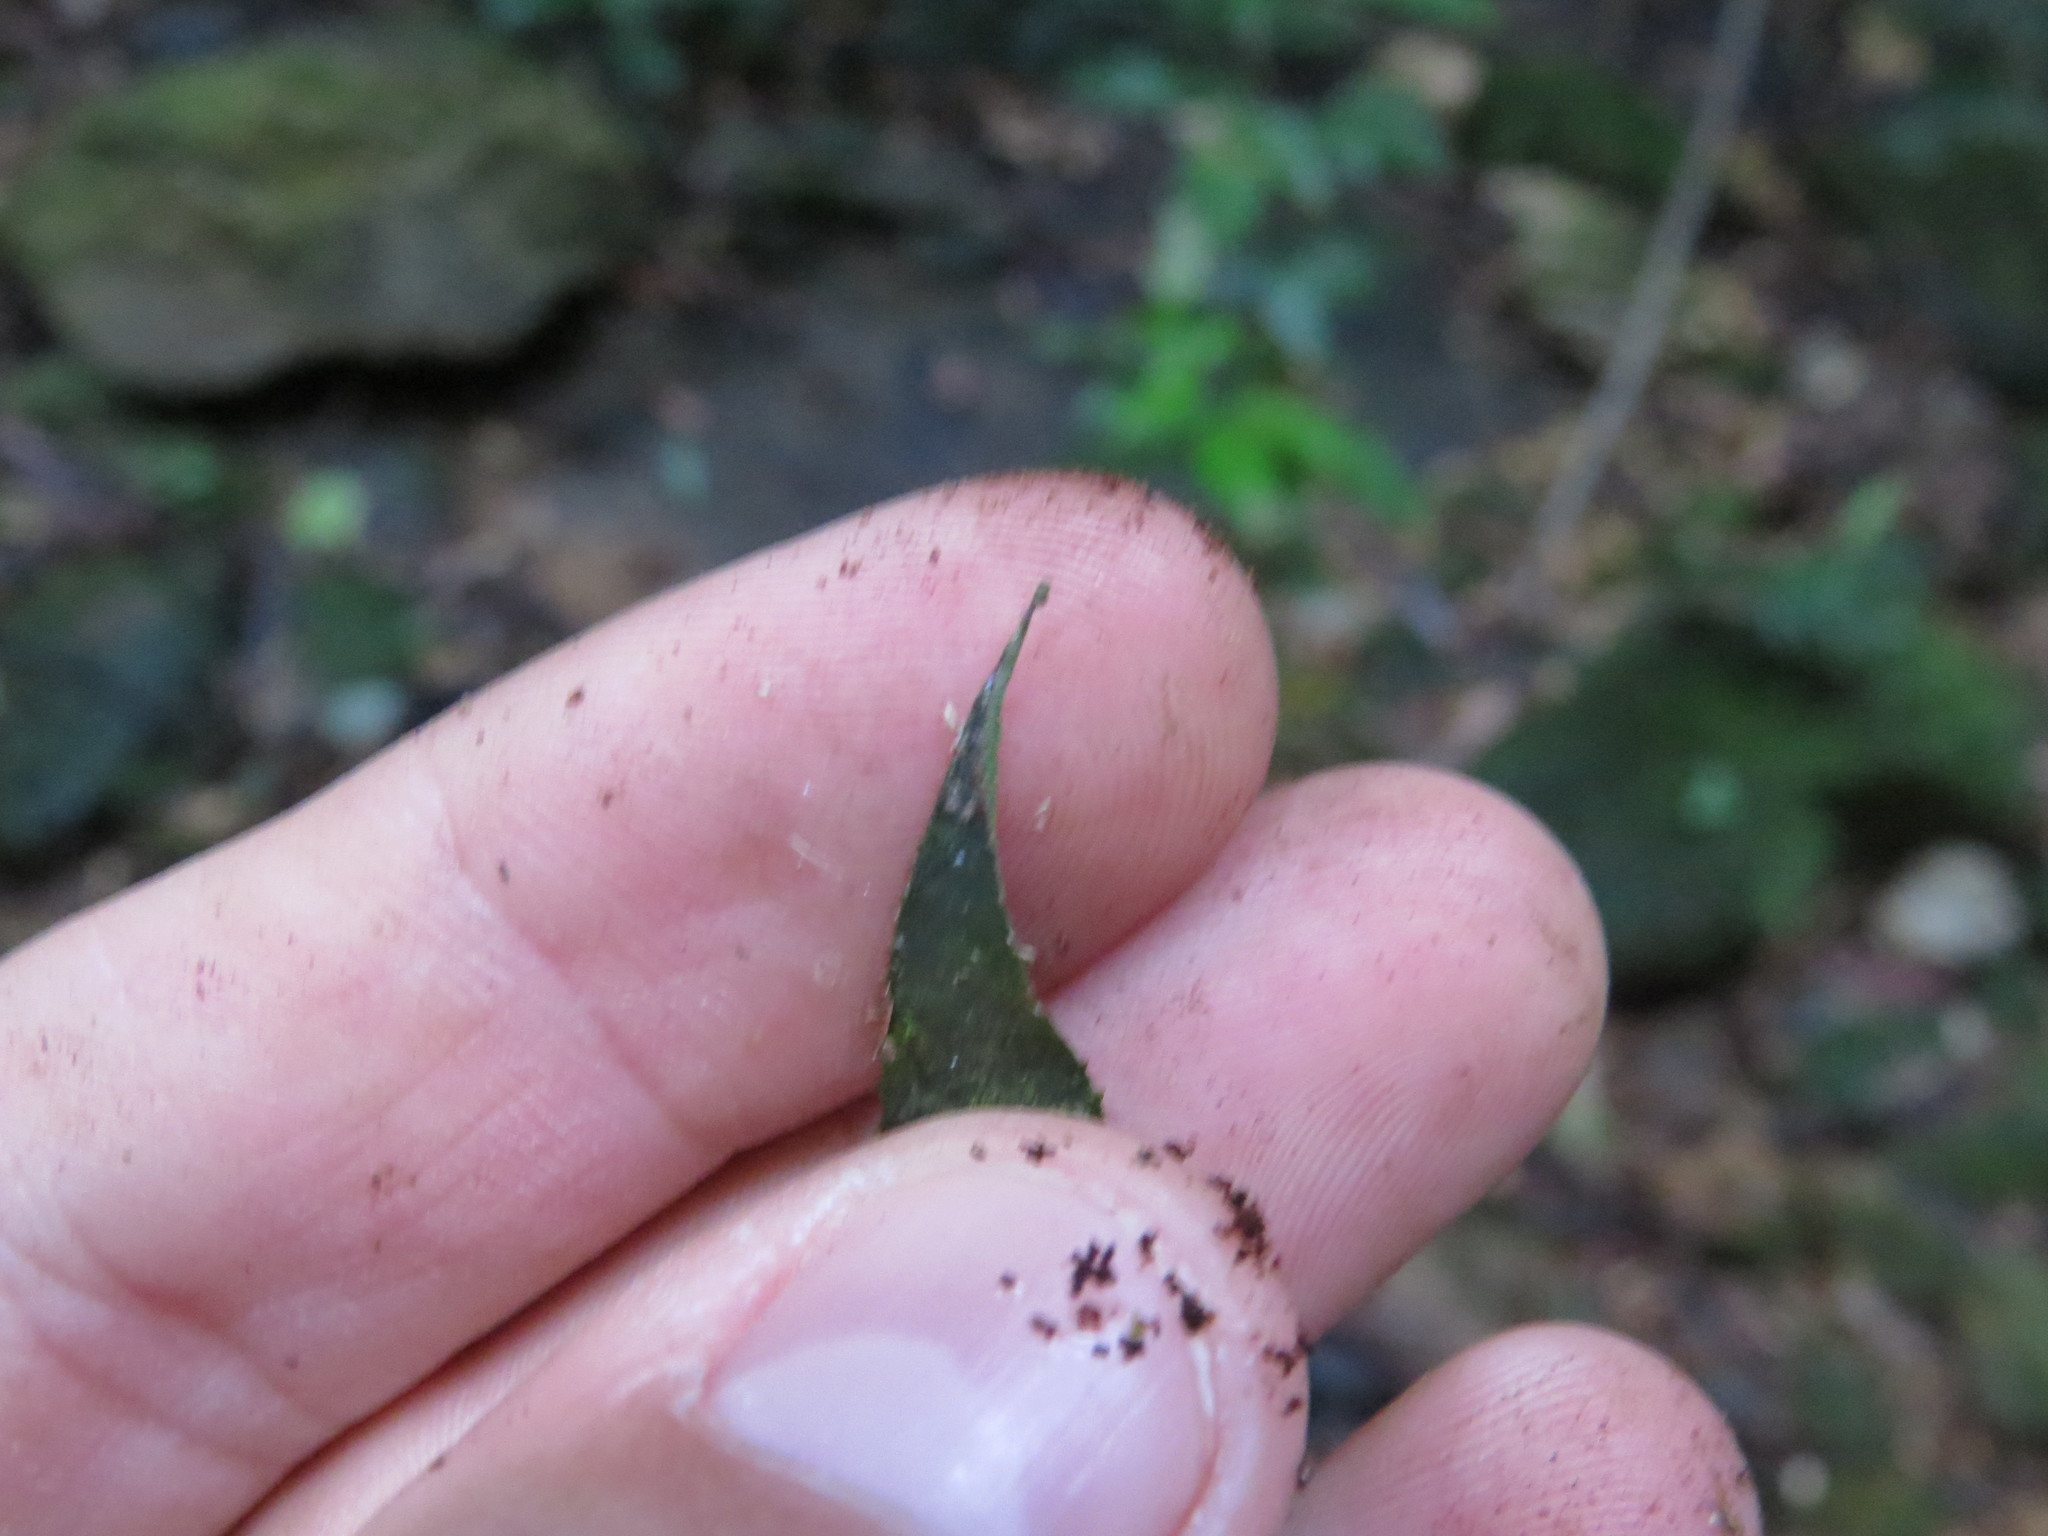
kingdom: Plantae
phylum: Tracheophyta
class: Liliopsida
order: Poales
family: Bromeliaceae
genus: Vriesea
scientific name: Vriesea psittacina
